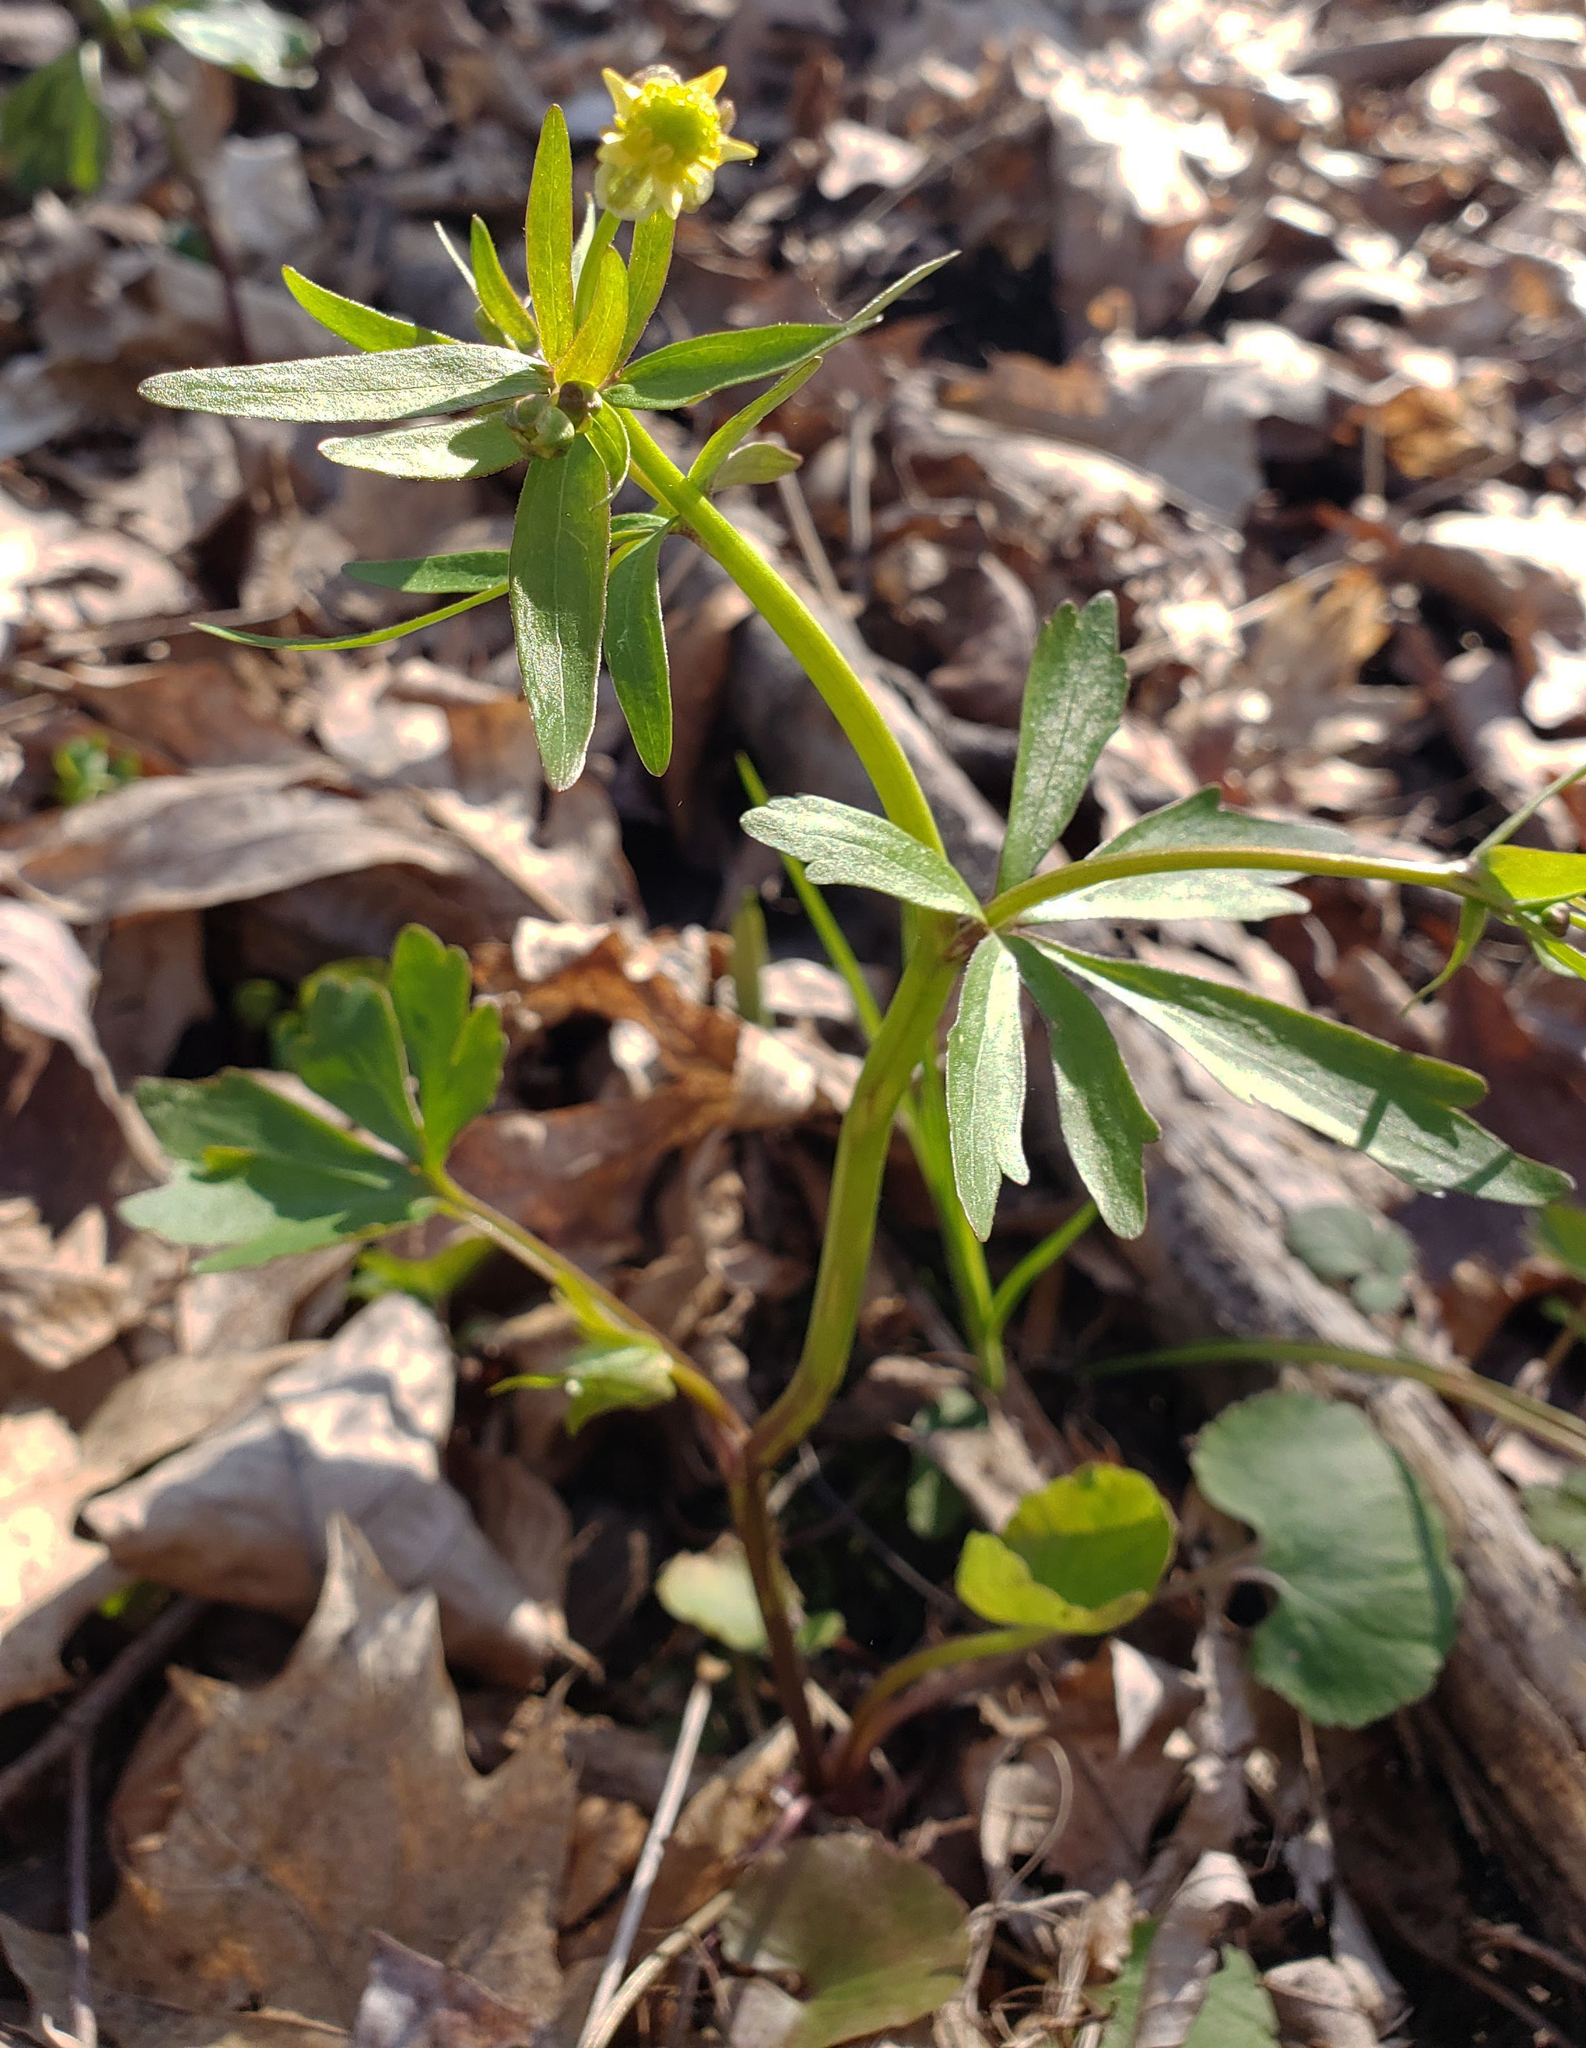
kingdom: Plantae
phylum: Tracheophyta
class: Magnoliopsida
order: Ranunculales
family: Ranunculaceae
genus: Ranunculus
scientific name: Ranunculus abortivus
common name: Early wood buttercup
